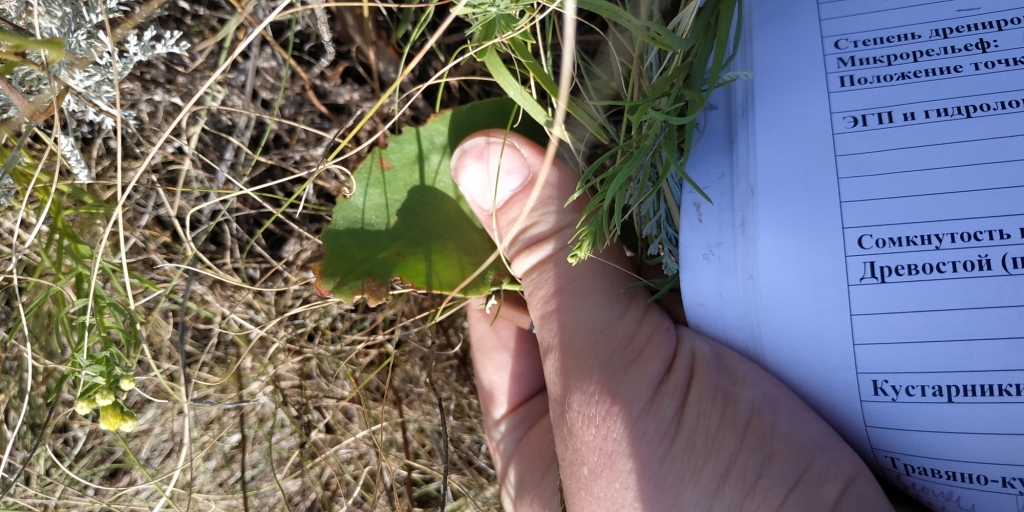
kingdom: Plantae
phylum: Tracheophyta
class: Magnoliopsida
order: Caryophyllales
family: Plumbaginaceae
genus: Limonium
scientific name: Limonium gmelini
